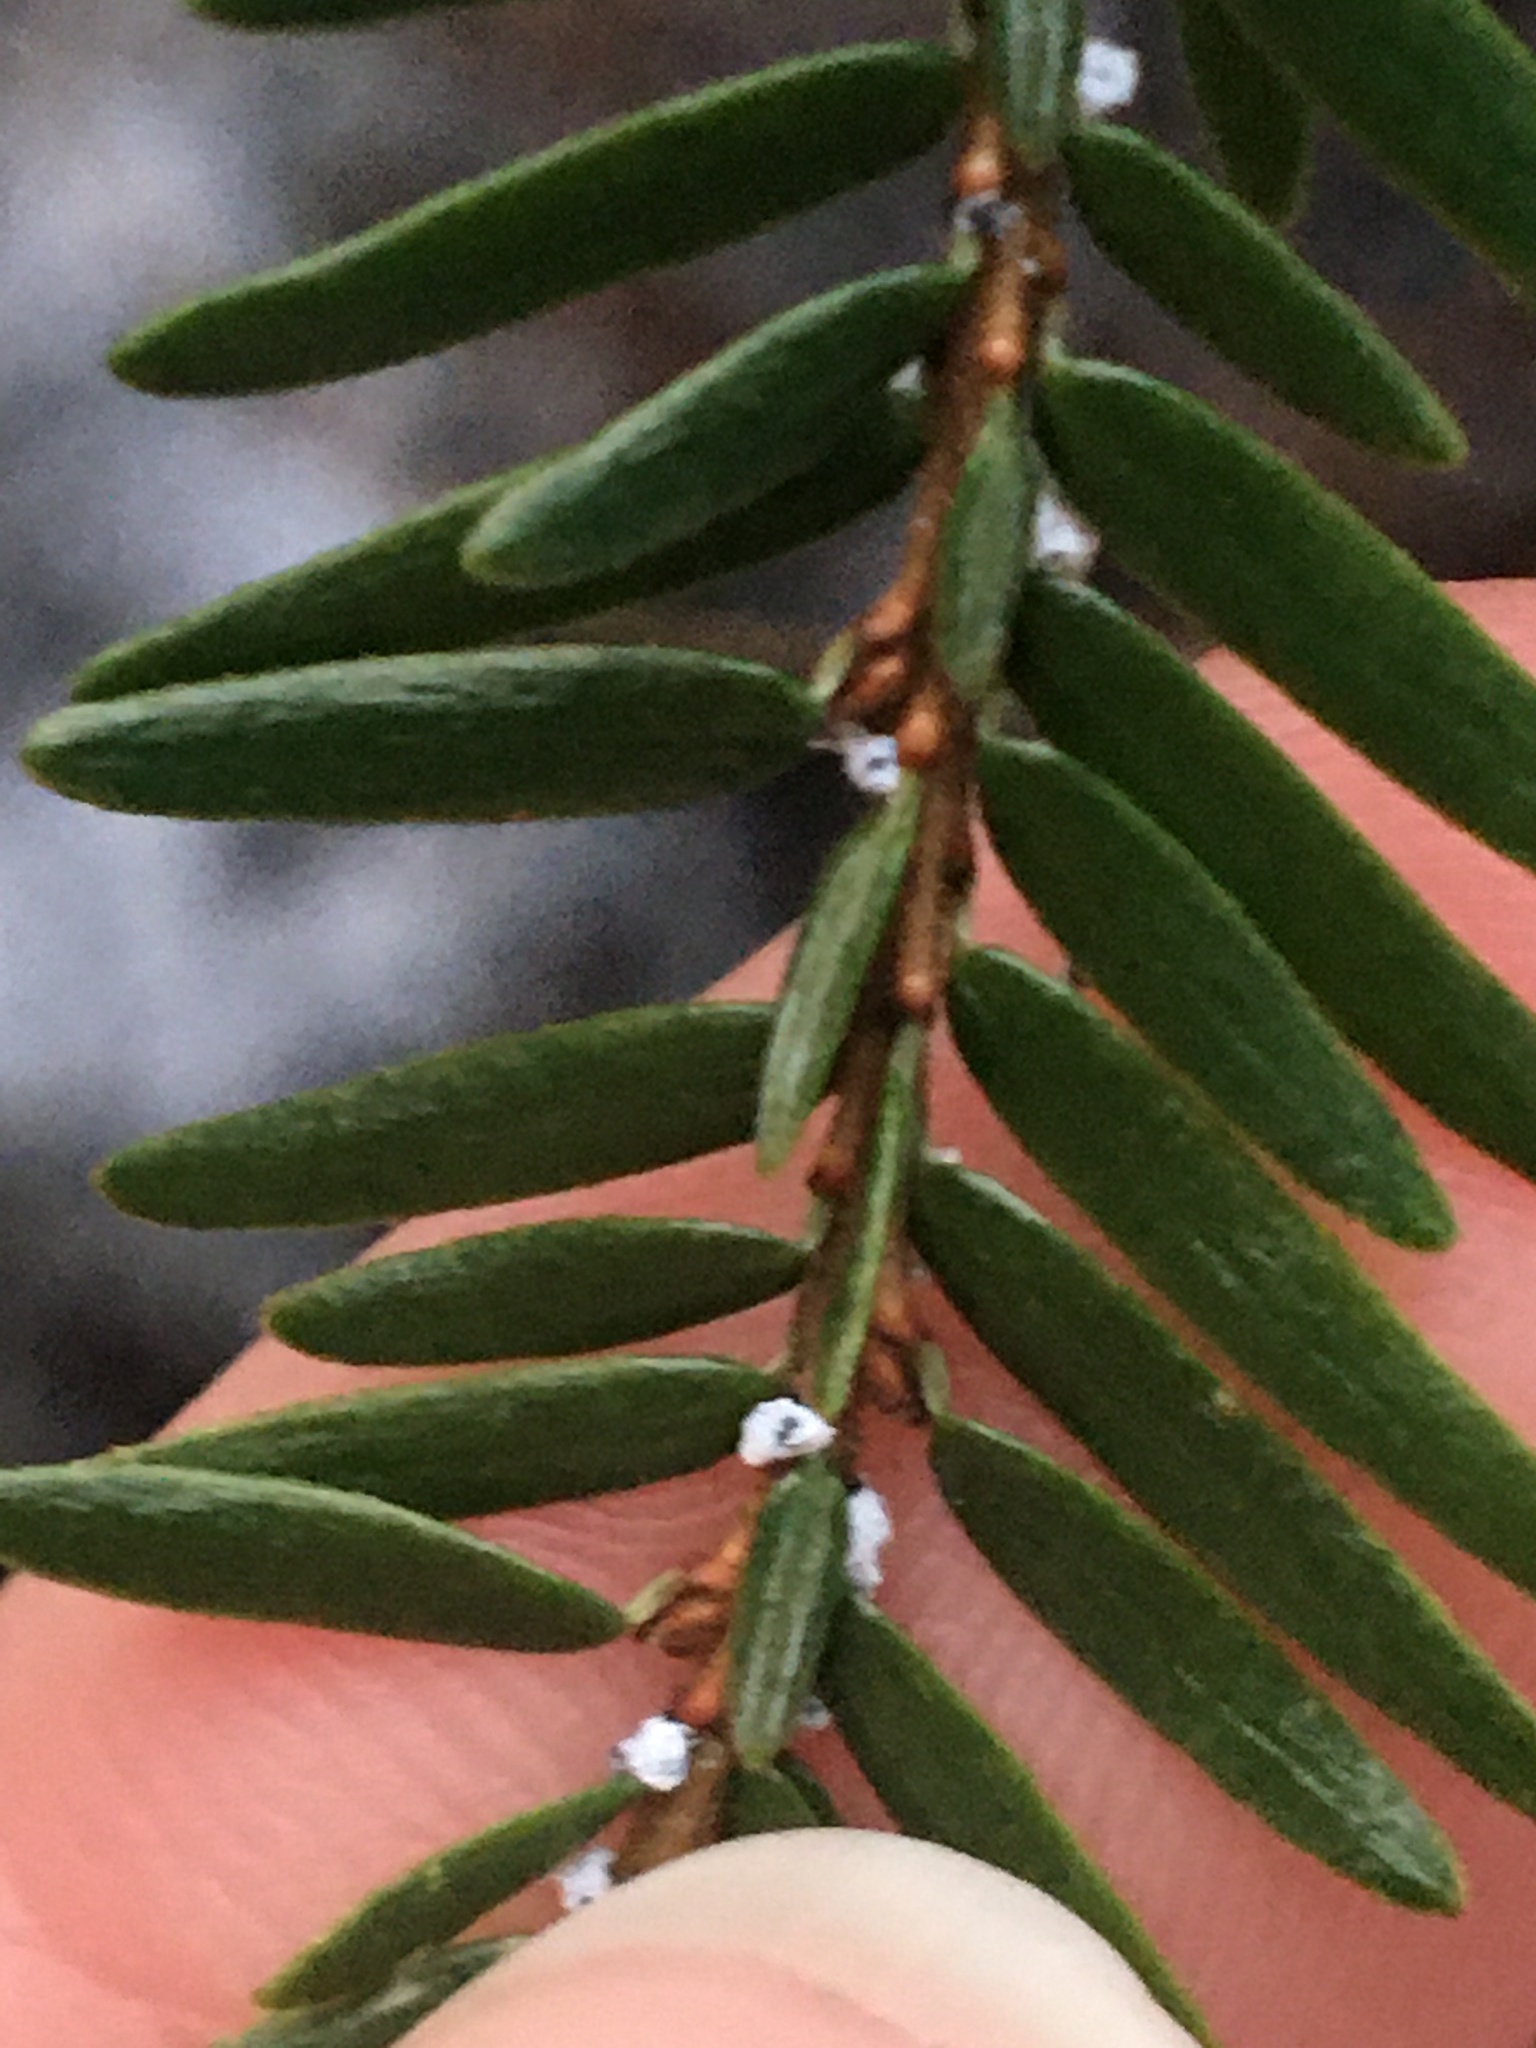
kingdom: Animalia
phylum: Arthropoda
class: Insecta
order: Hemiptera
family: Adelgidae
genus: Adelges
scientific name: Adelges tsugae
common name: Hemlock woolly adelgid
